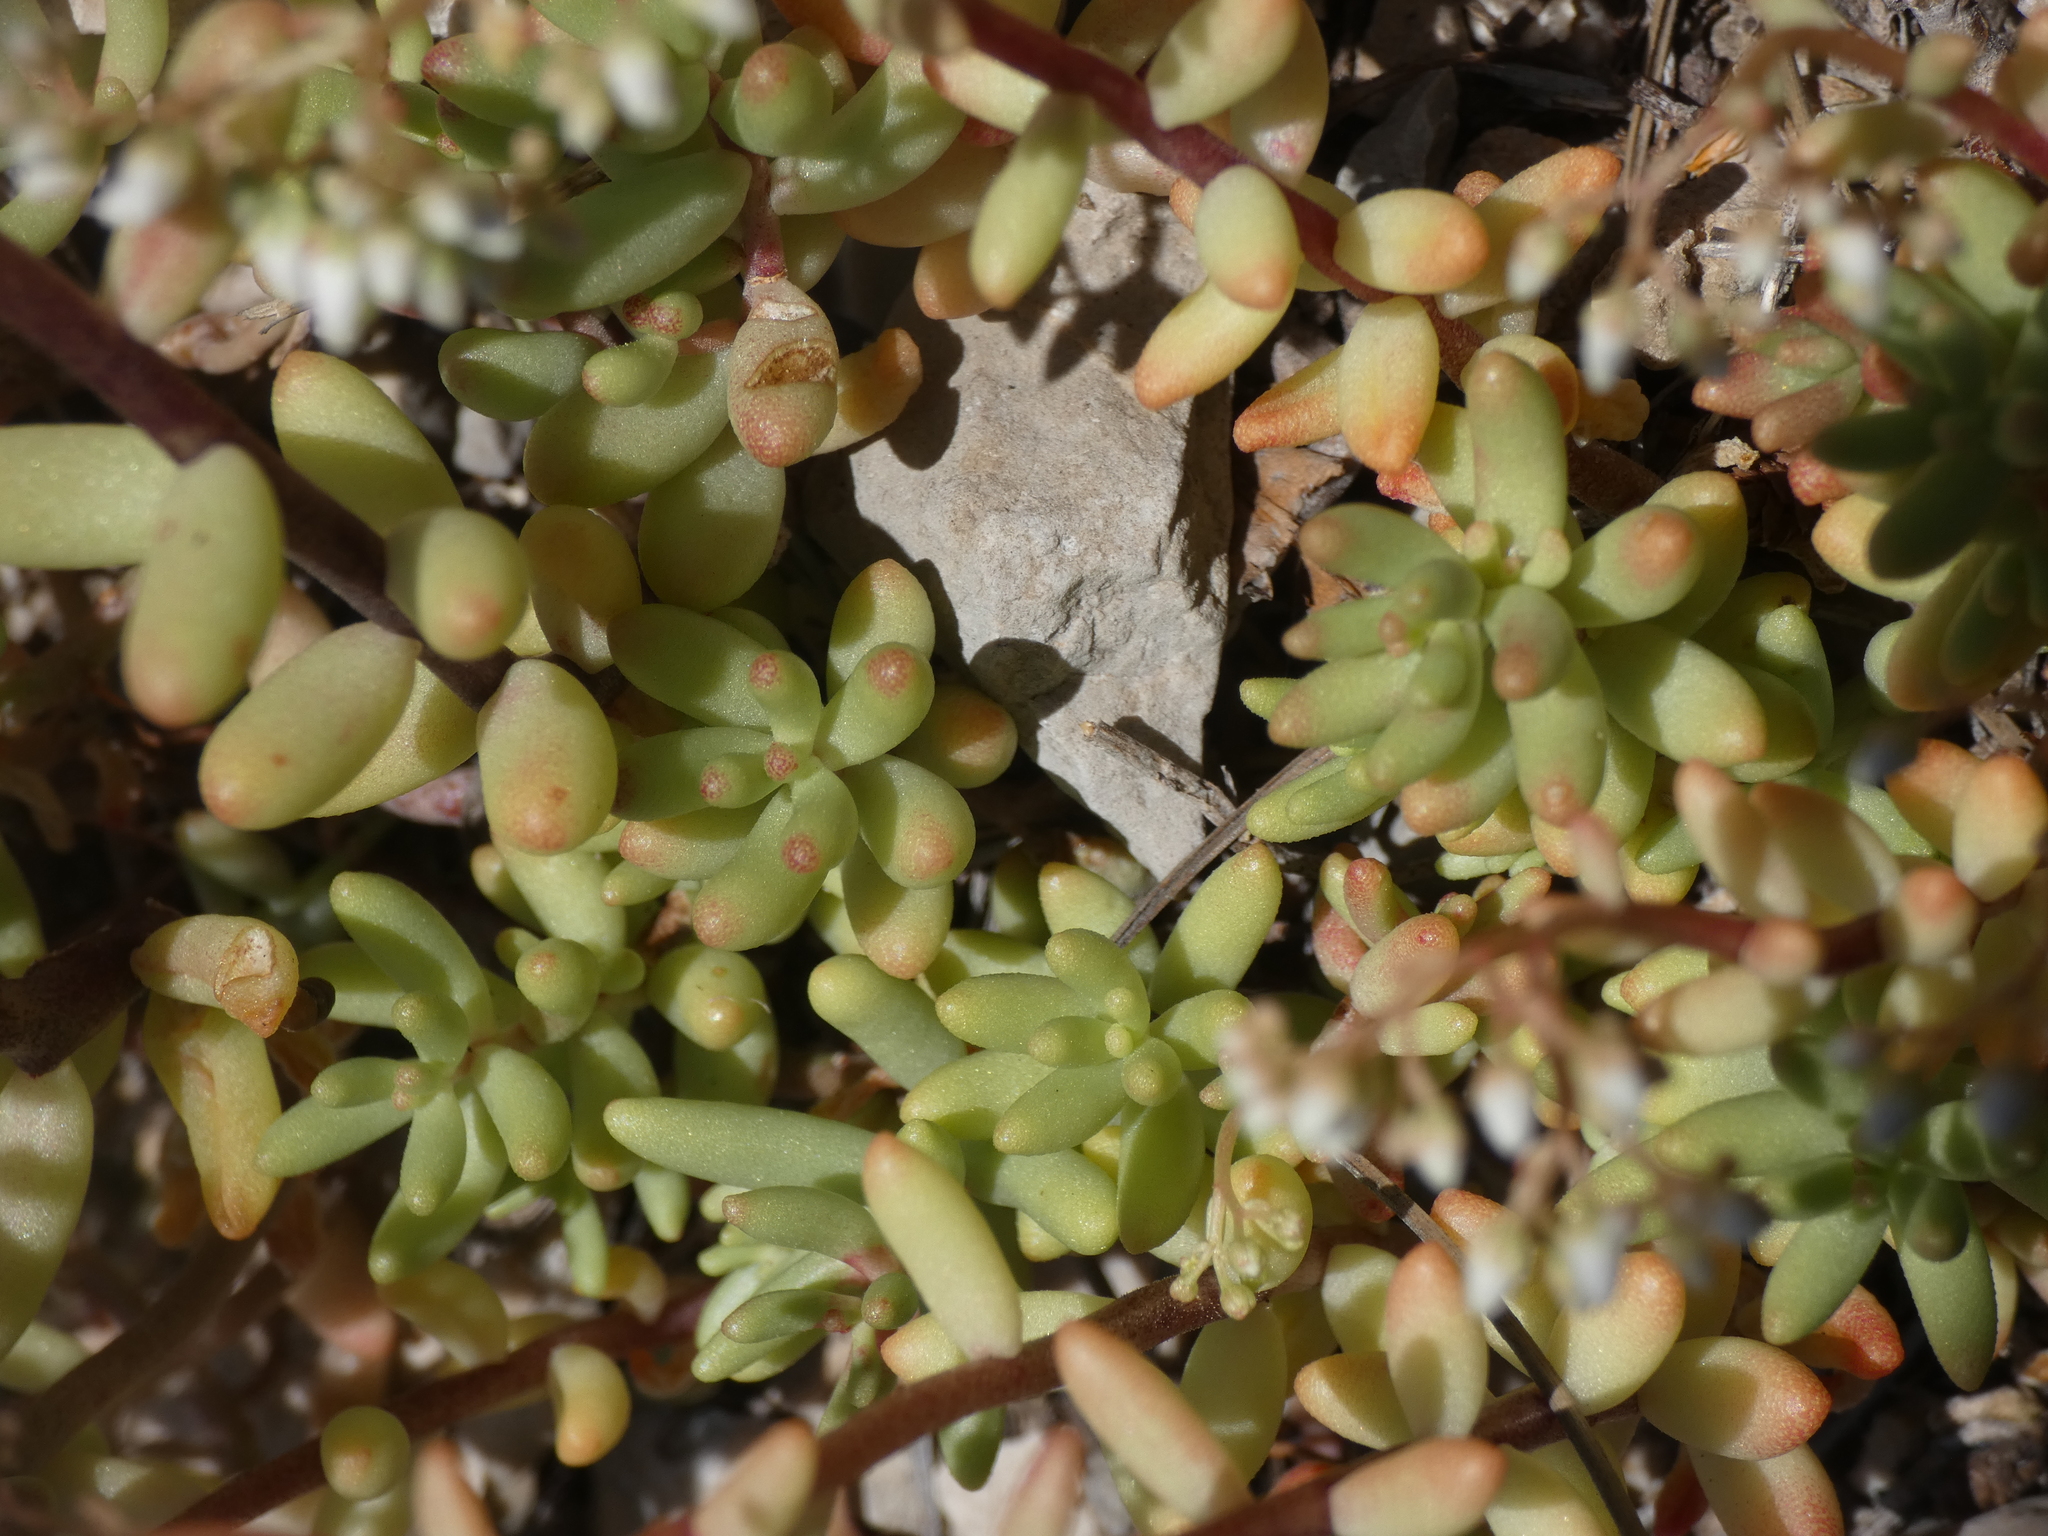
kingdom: Plantae
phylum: Tracheophyta
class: Magnoliopsida
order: Saxifragales
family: Crassulaceae
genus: Sedum
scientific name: Sedum album
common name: White stonecrop
